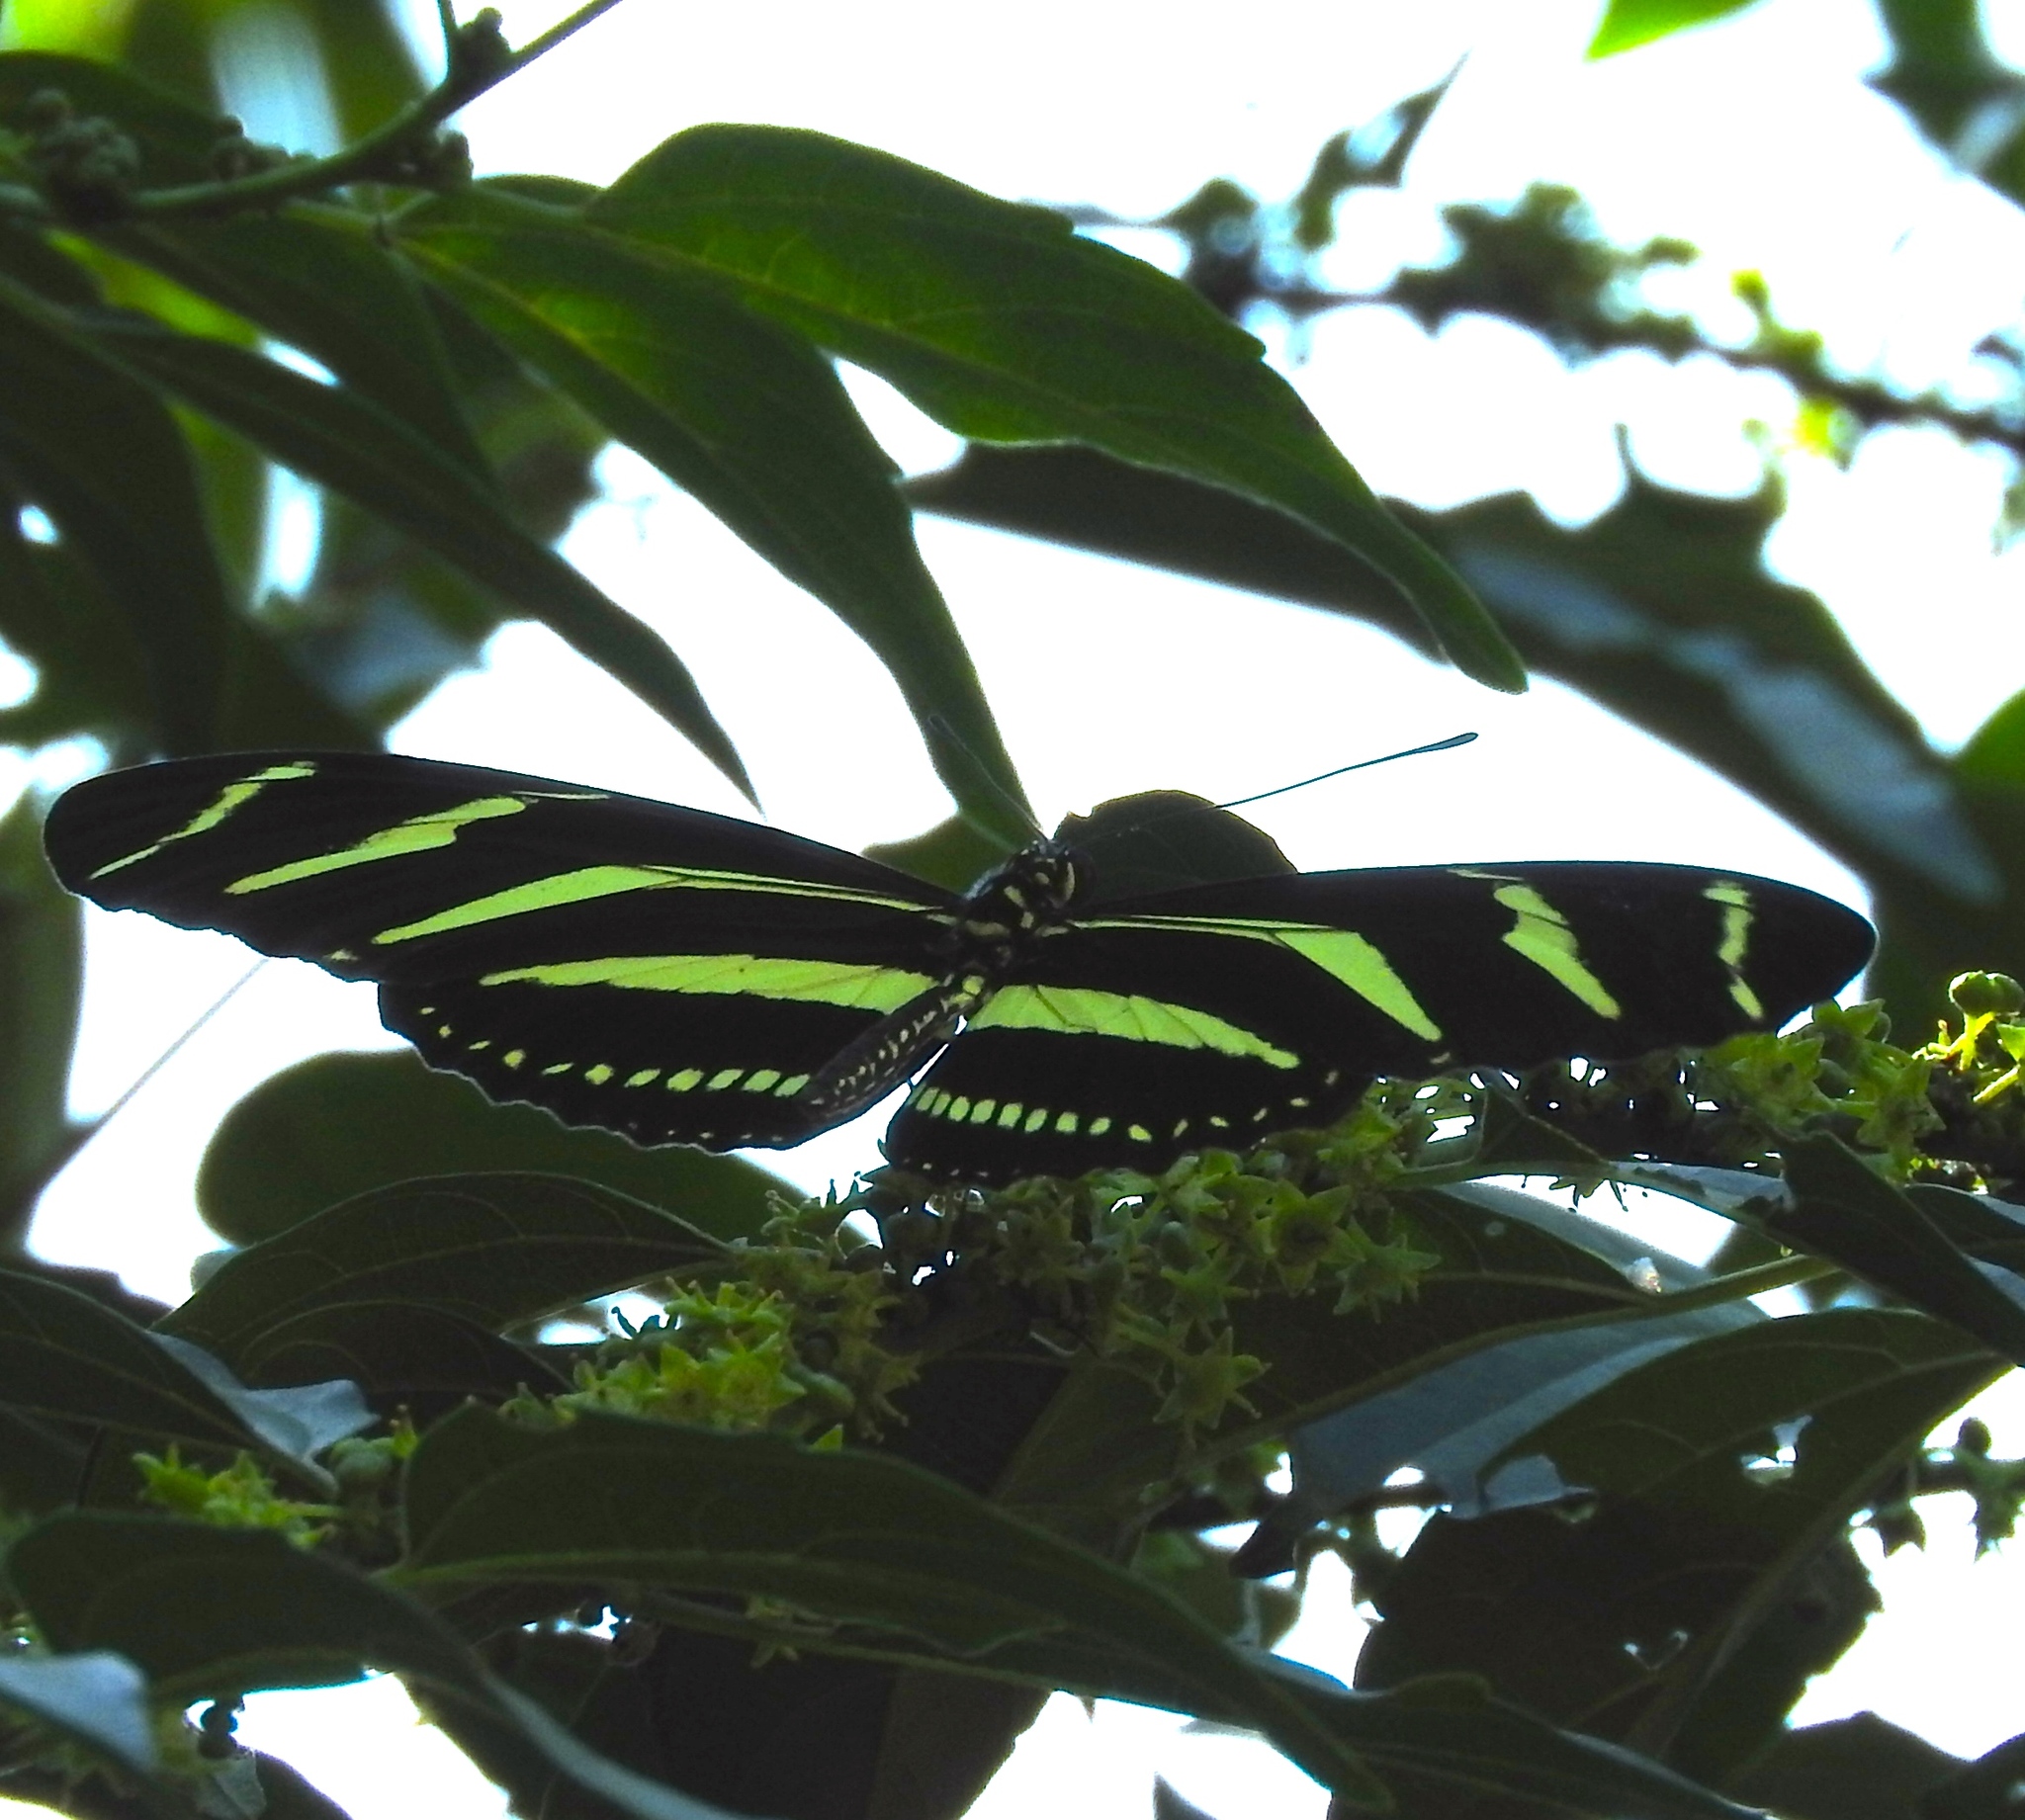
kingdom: Animalia
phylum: Arthropoda
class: Insecta
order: Lepidoptera
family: Nymphalidae
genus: Heliconius
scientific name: Heliconius charithonia
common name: Zebra long wing
